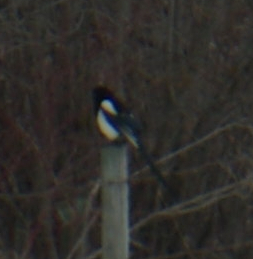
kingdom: Animalia
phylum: Chordata
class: Aves
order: Passeriformes
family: Corvidae
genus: Pica
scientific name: Pica hudsonia
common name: Black-billed magpie
